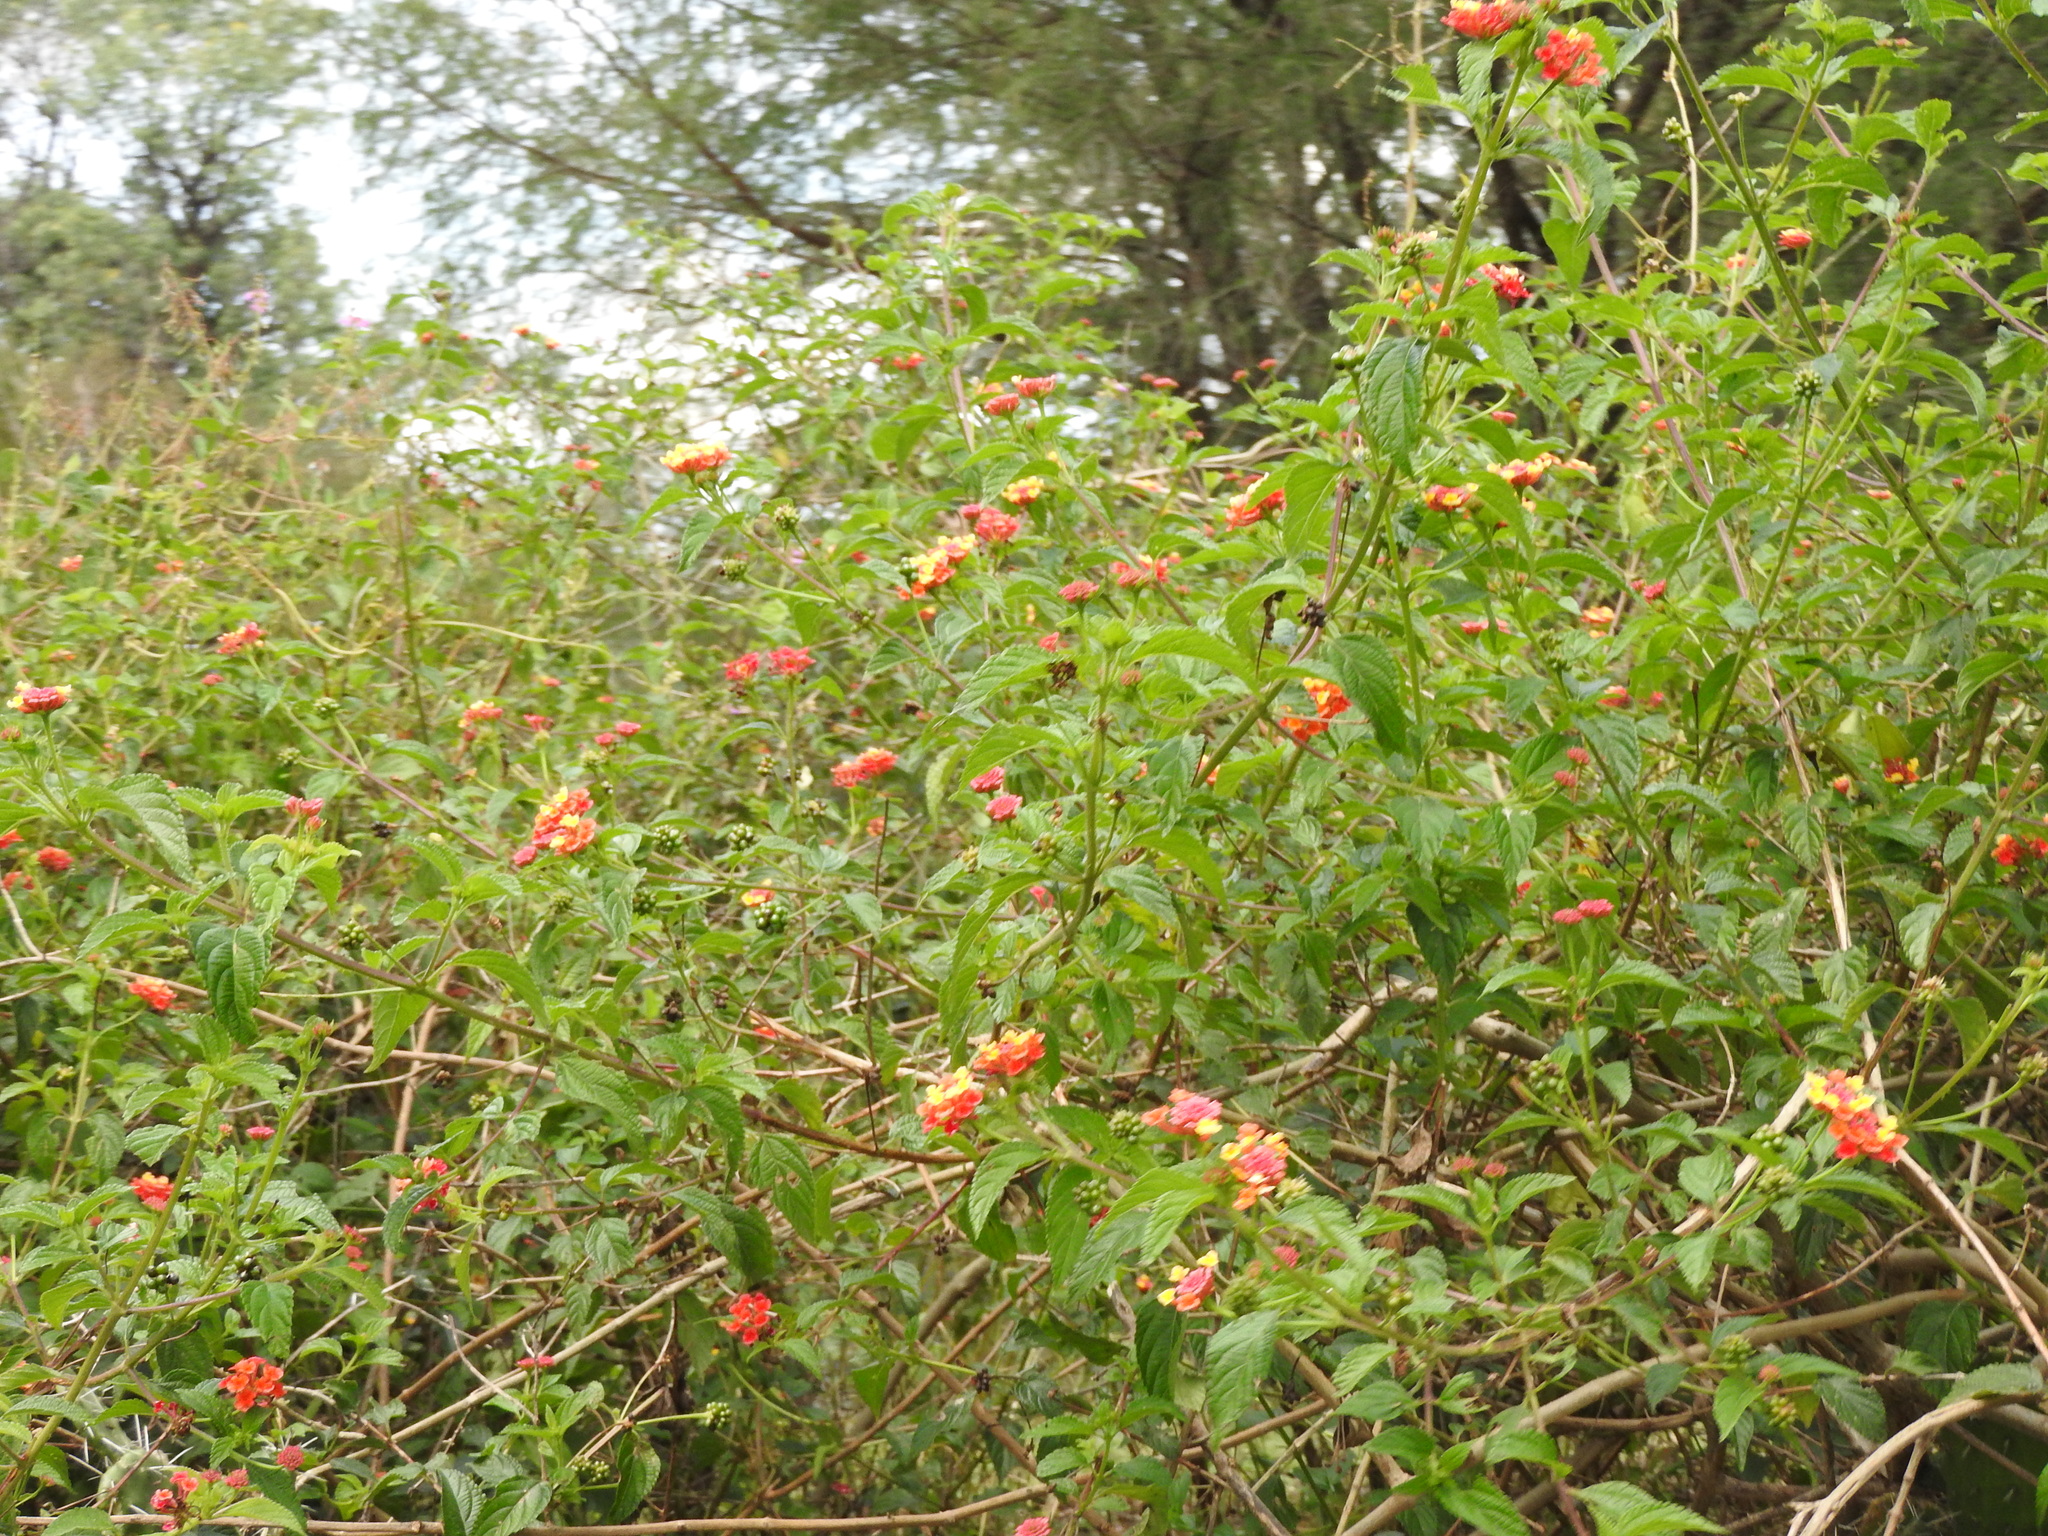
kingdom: Plantae
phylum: Tracheophyta
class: Magnoliopsida
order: Lamiales
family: Verbenaceae
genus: Lantana
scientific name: Lantana camara
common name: Lantana
